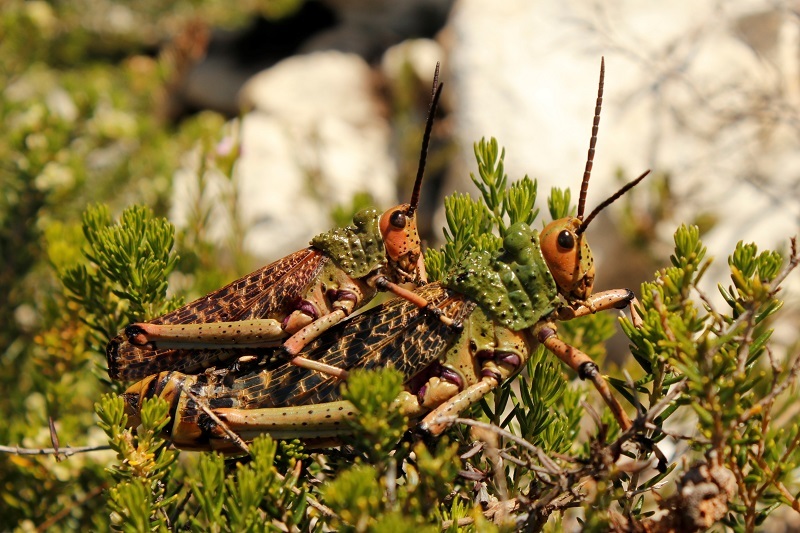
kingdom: Animalia
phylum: Arthropoda
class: Insecta
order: Orthoptera
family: Pyrgomorphidae
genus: Phymateus
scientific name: Phymateus leprosus
